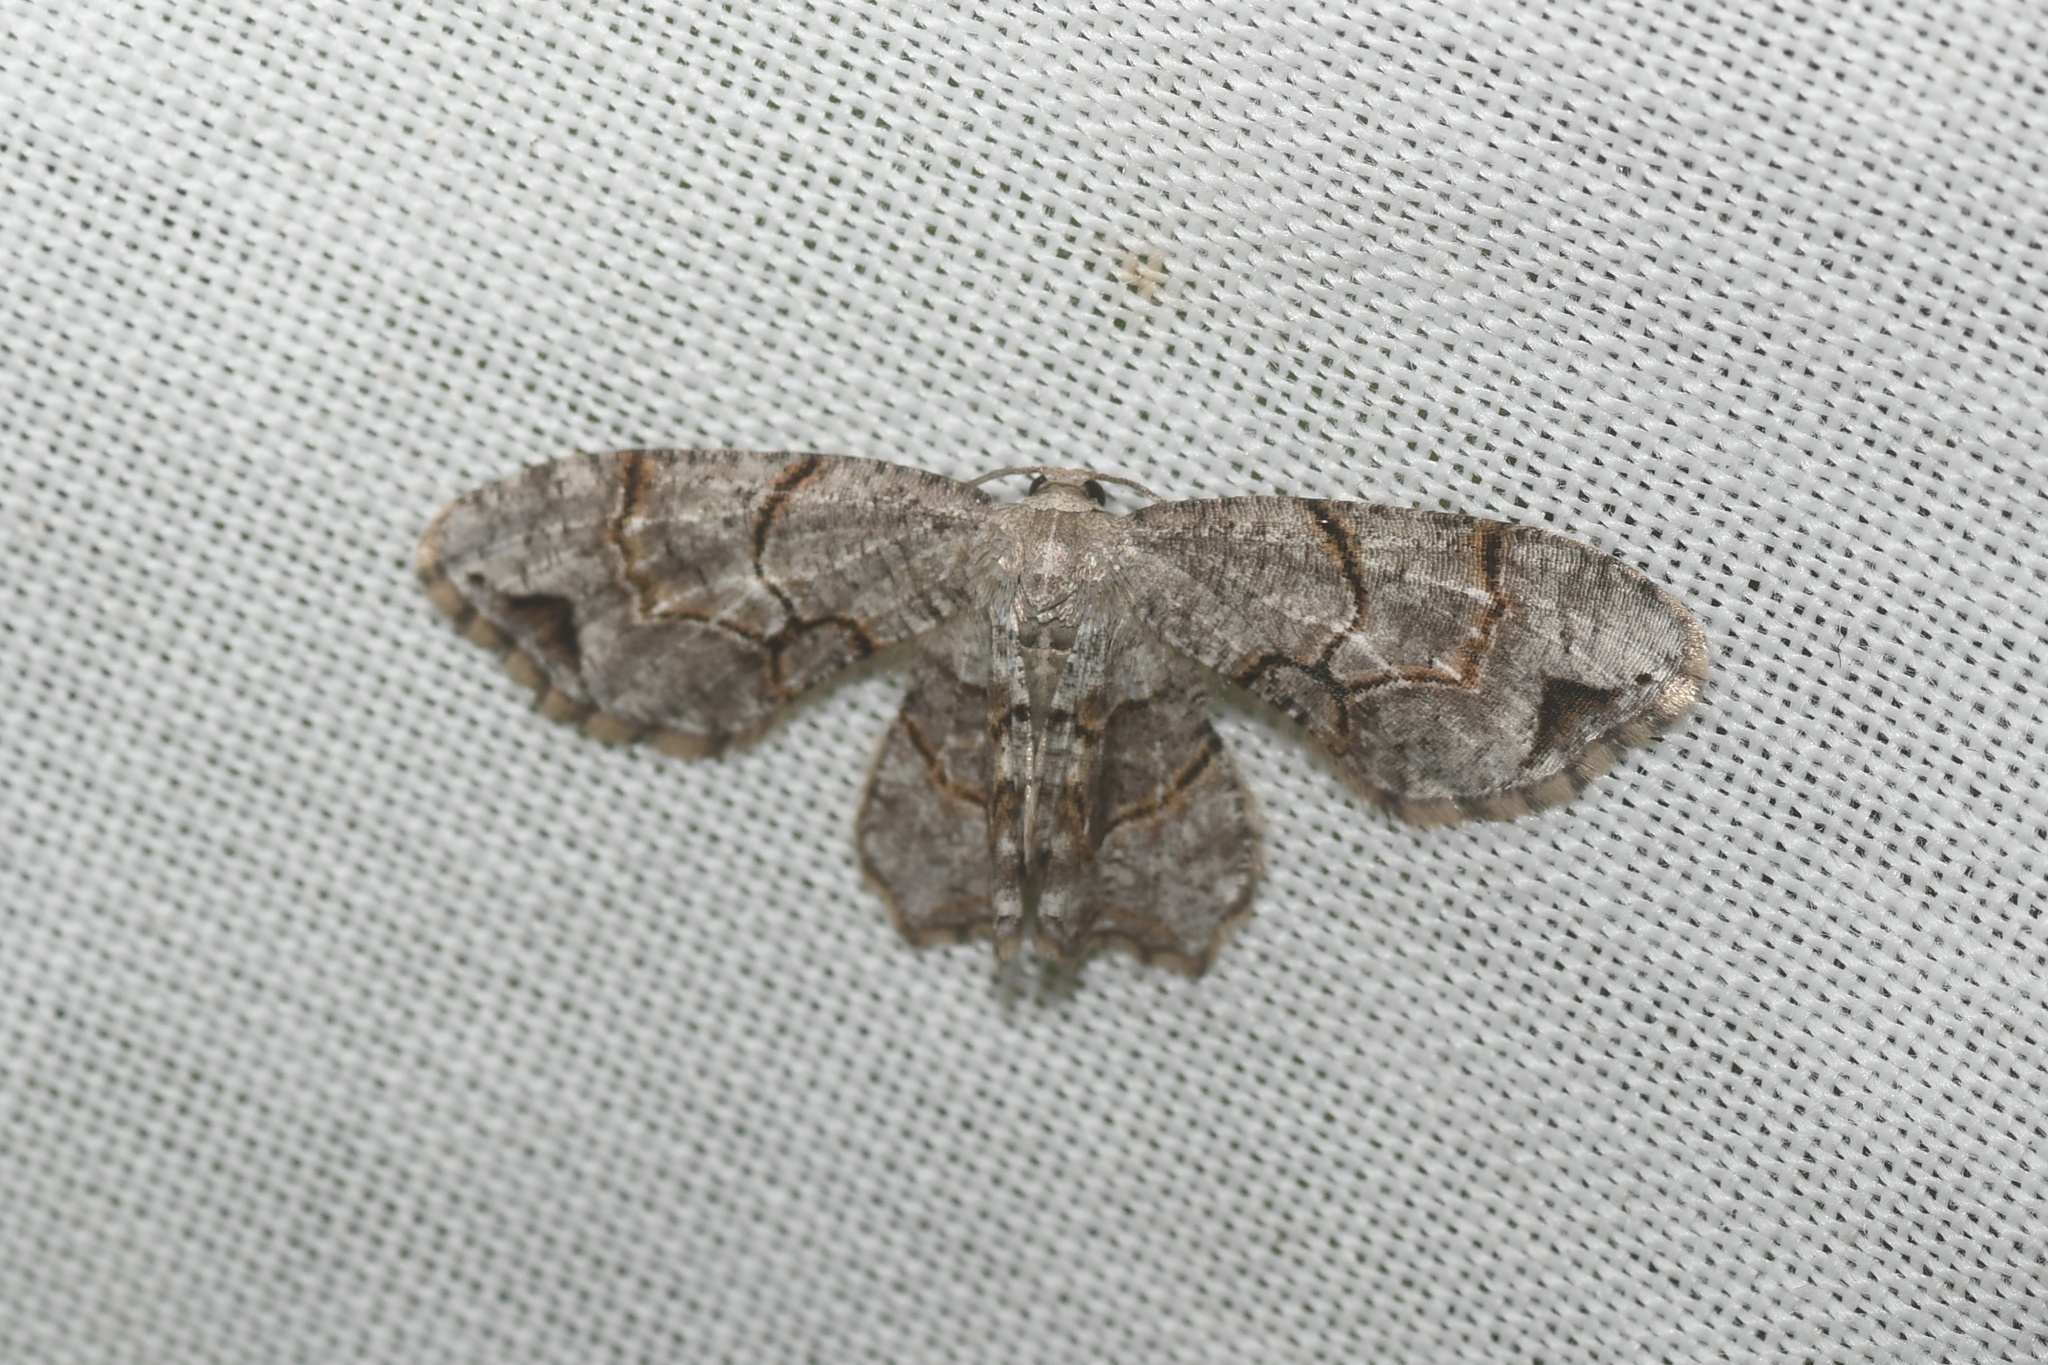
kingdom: Animalia
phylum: Arthropoda
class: Insecta
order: Lepidoptera
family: Uraniidae
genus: Epiplema
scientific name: Epiplema Callizzia amorata
